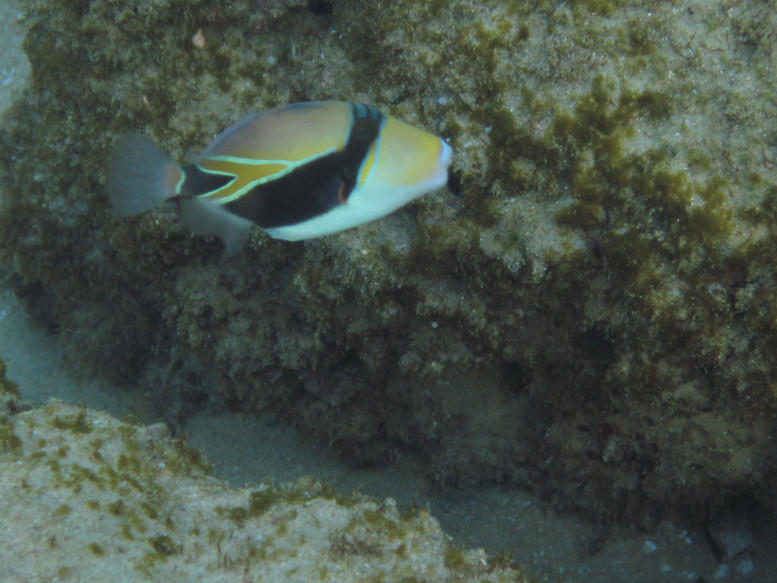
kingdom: Animalia
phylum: Chordata
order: Tetraodontiformes
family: Balistidae
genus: Rhinecanthus
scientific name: Rhinecanthus rectangulus
